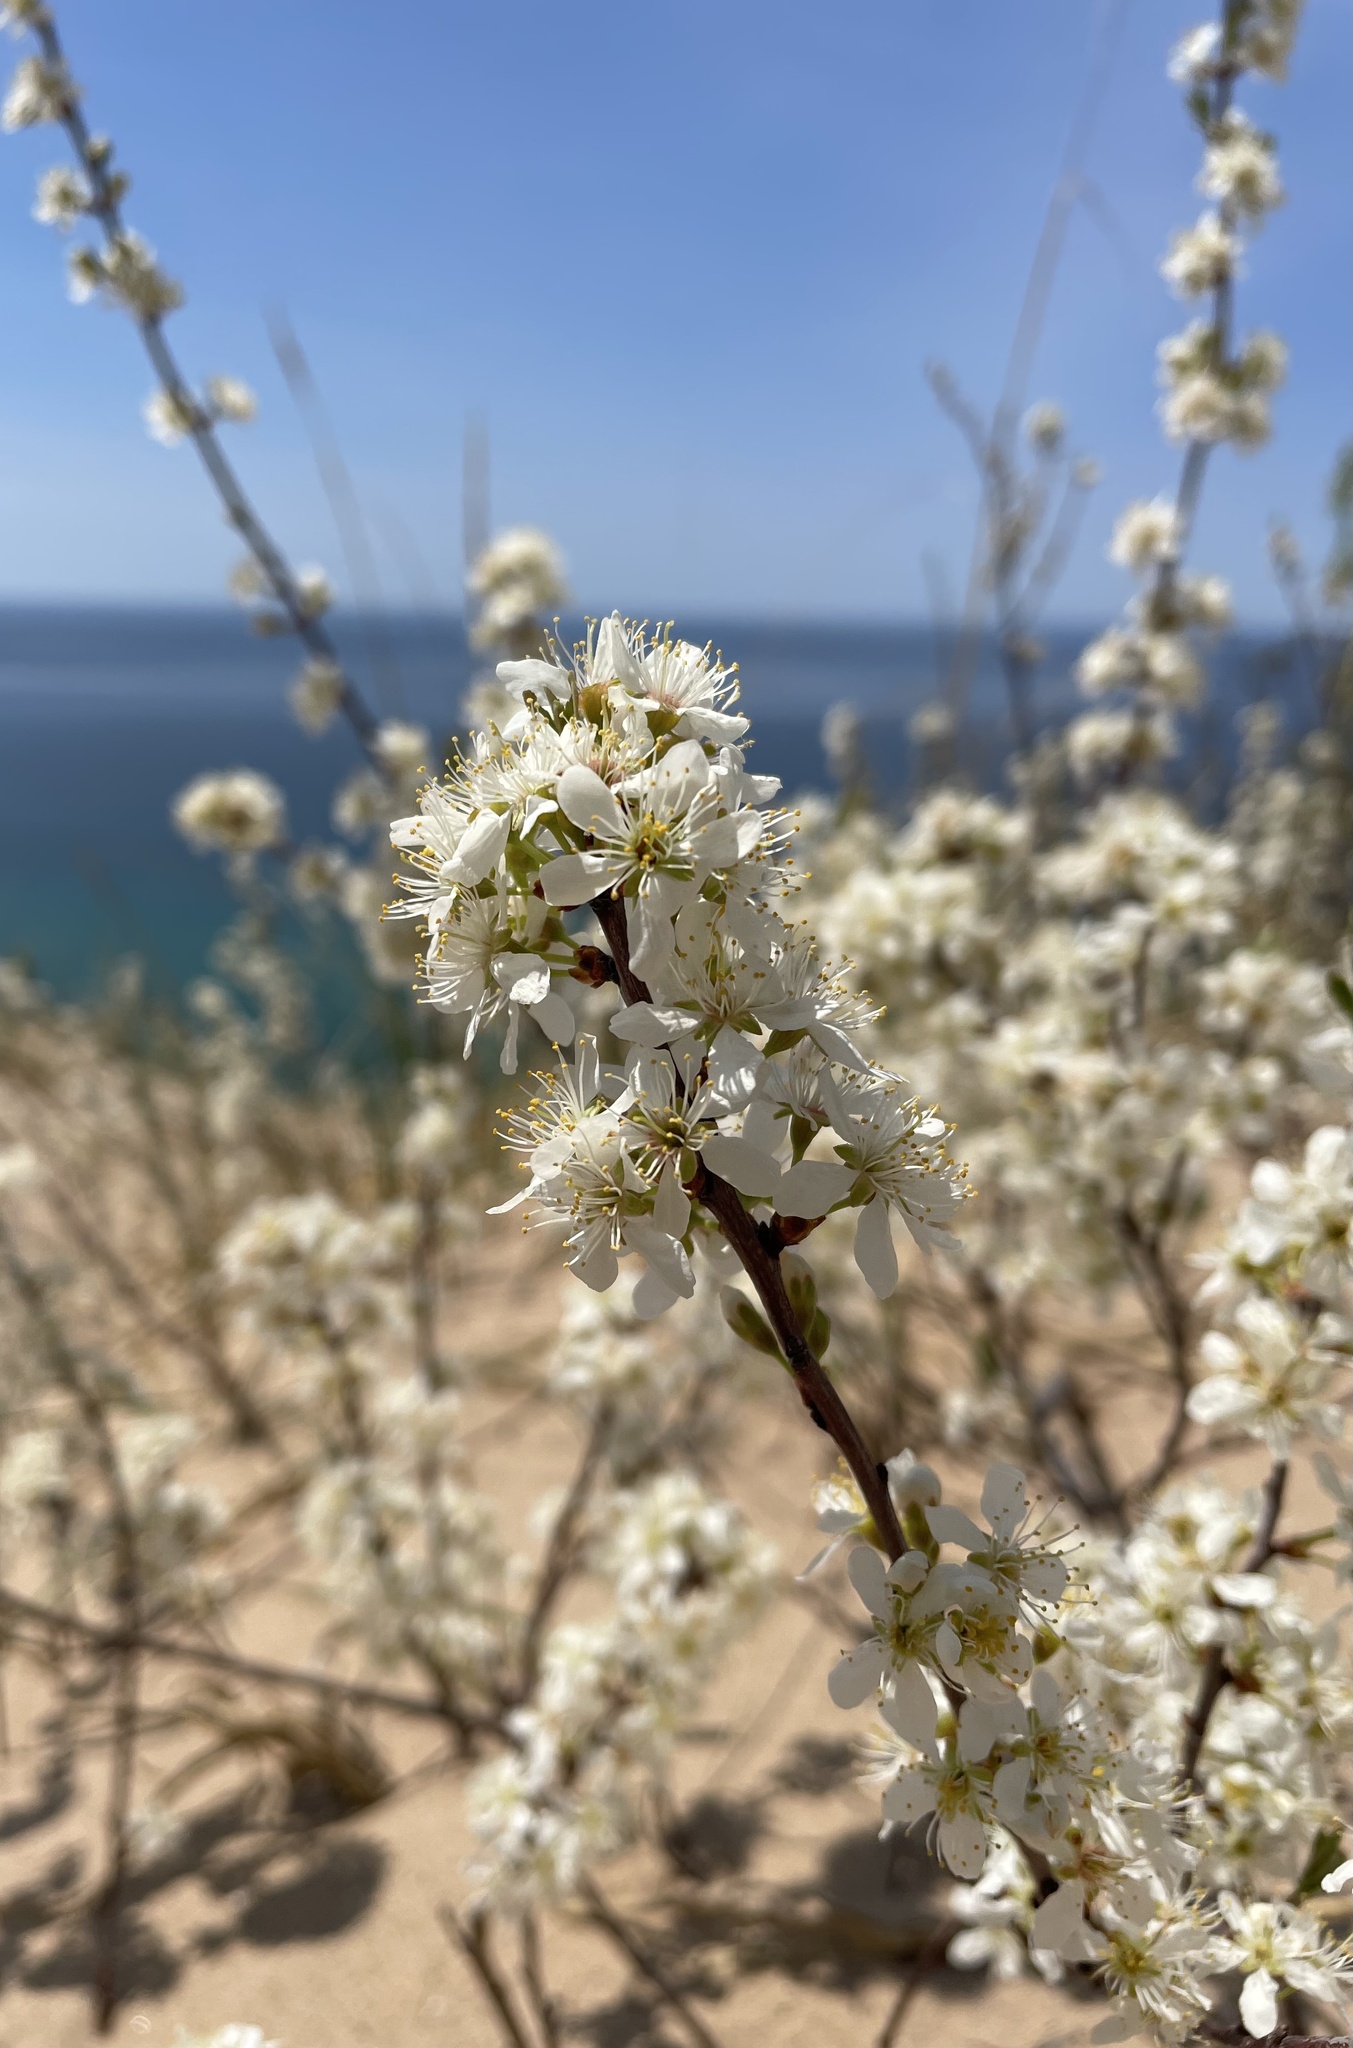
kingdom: Plantae
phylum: Tracheophyta
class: Magnoliopsida
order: Rosales
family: Rosaceae
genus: Prunus
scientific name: Prunus pumila
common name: Dwarf cherry
